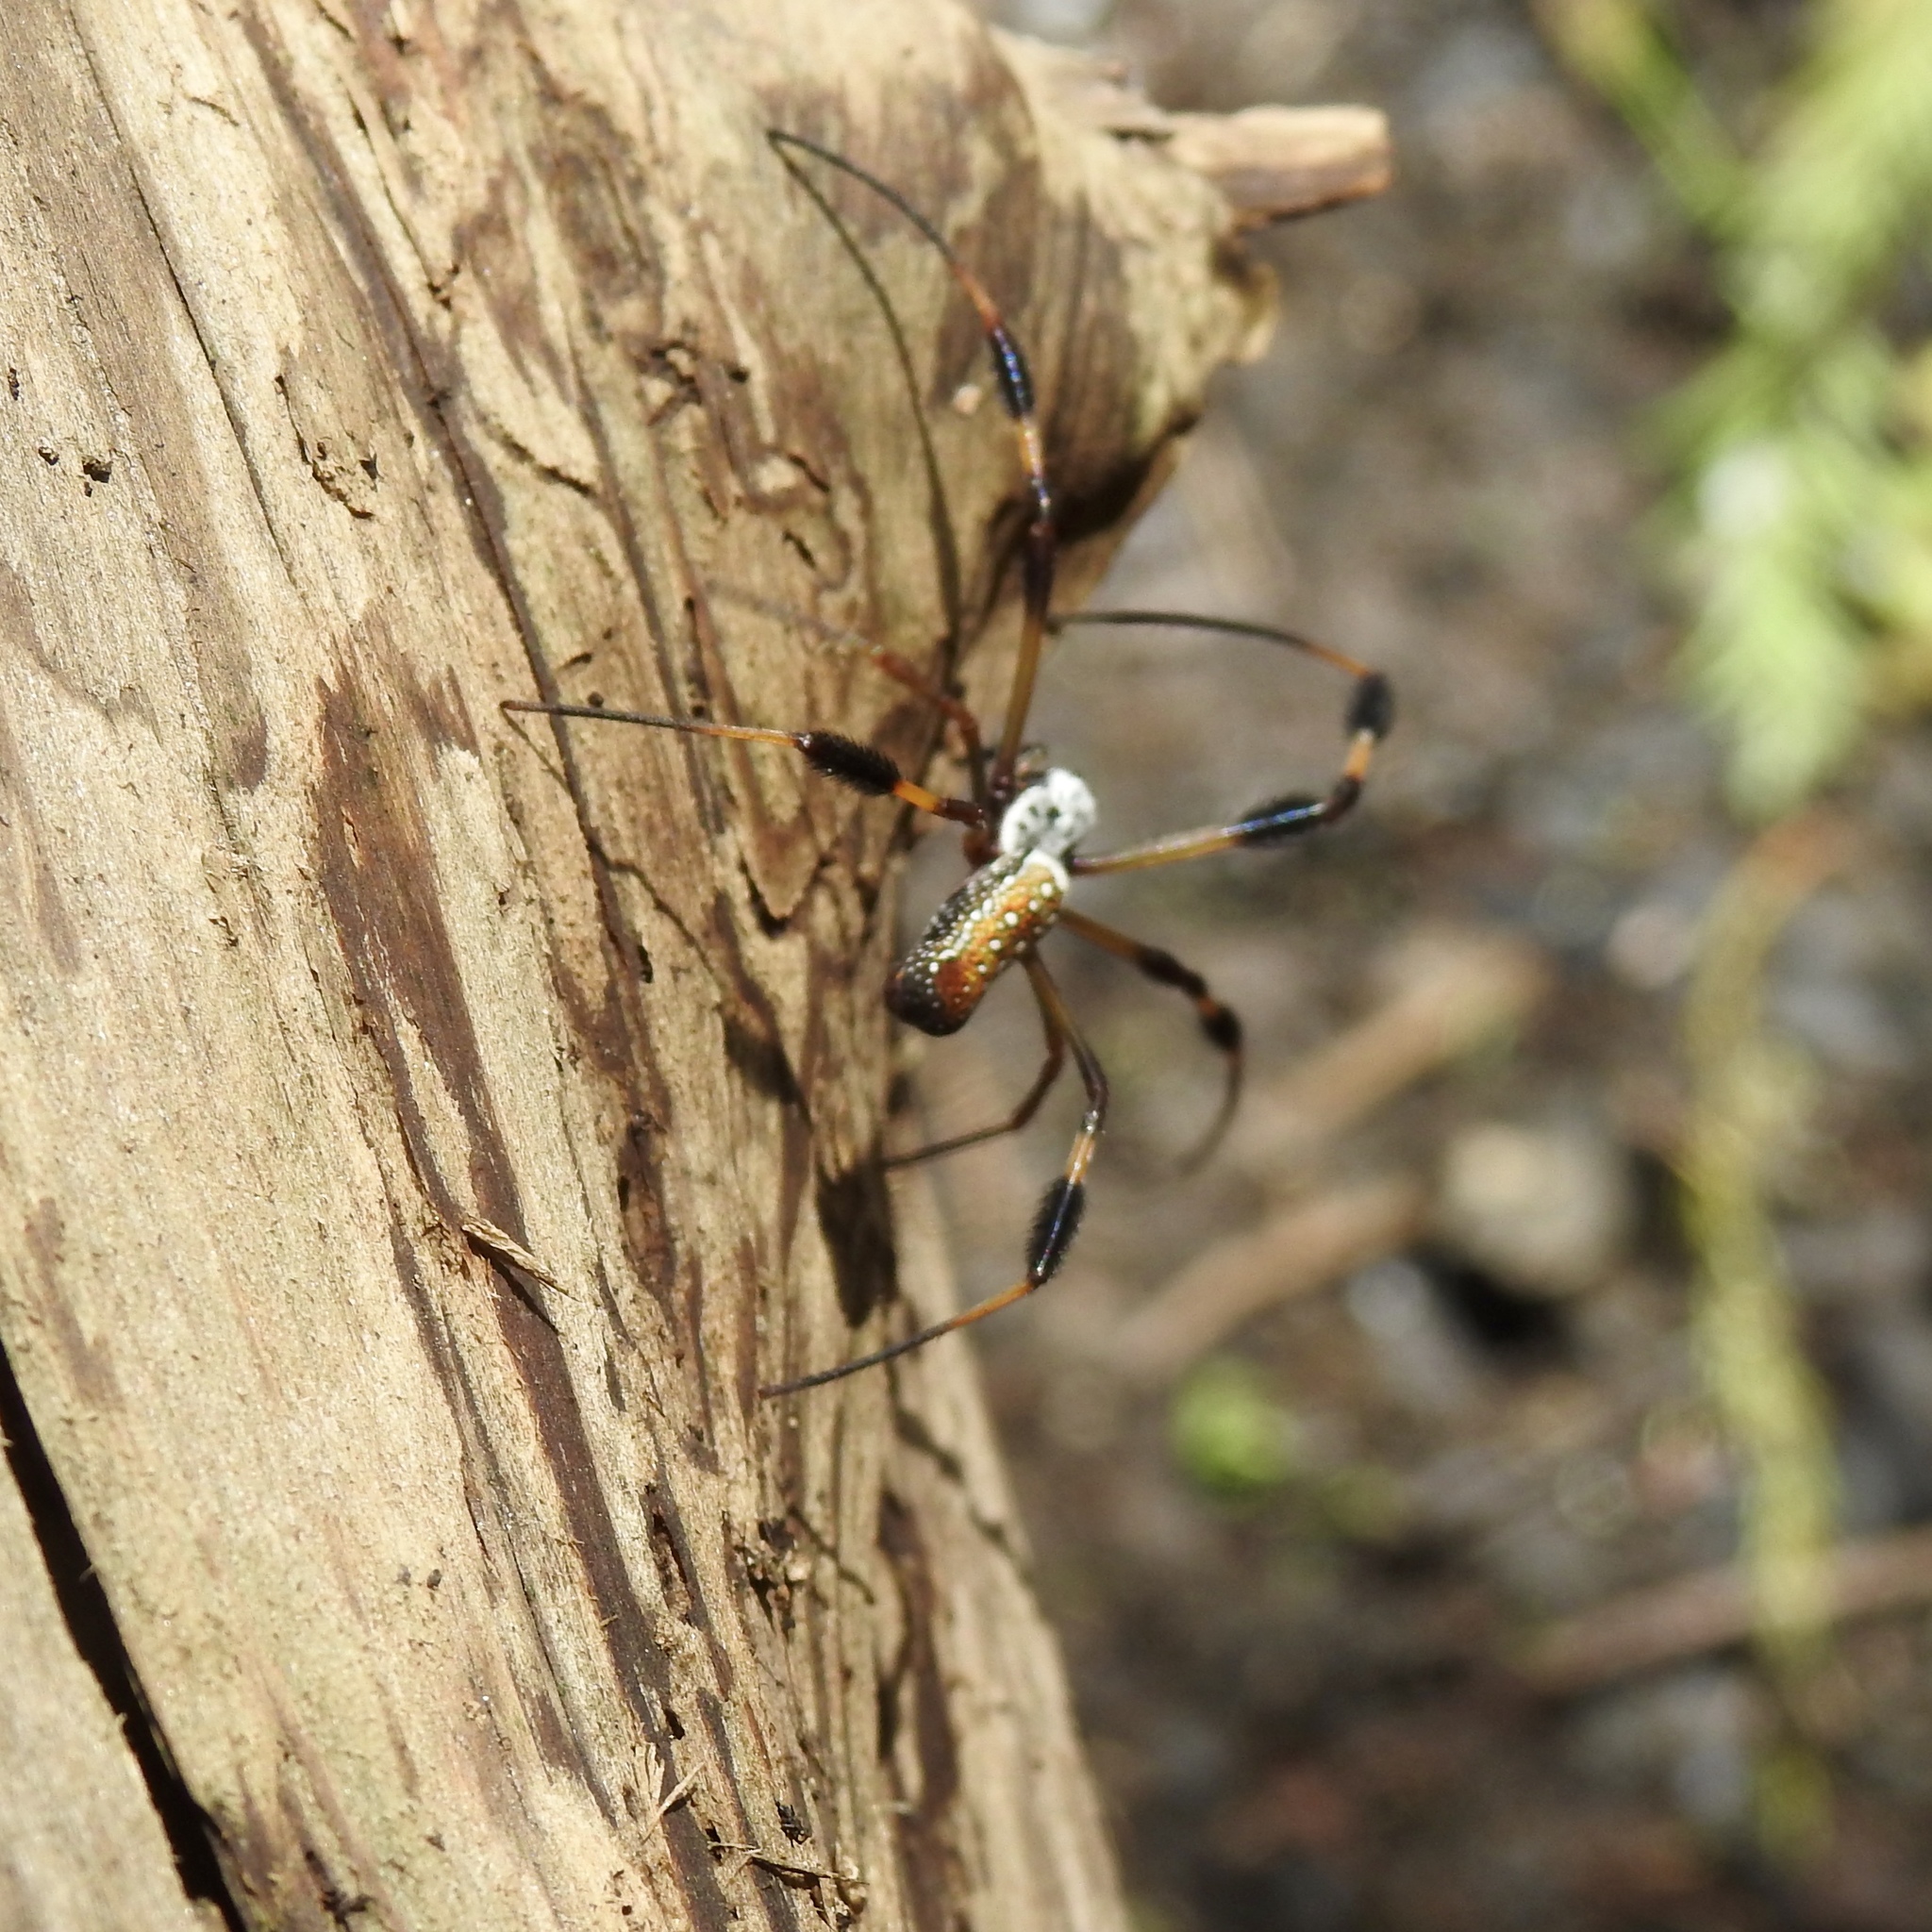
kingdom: Animalia
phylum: Arthropoda
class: Arachnida
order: Araneae
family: Araneidae
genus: Trichonephila
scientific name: Trichonephila clavipes
